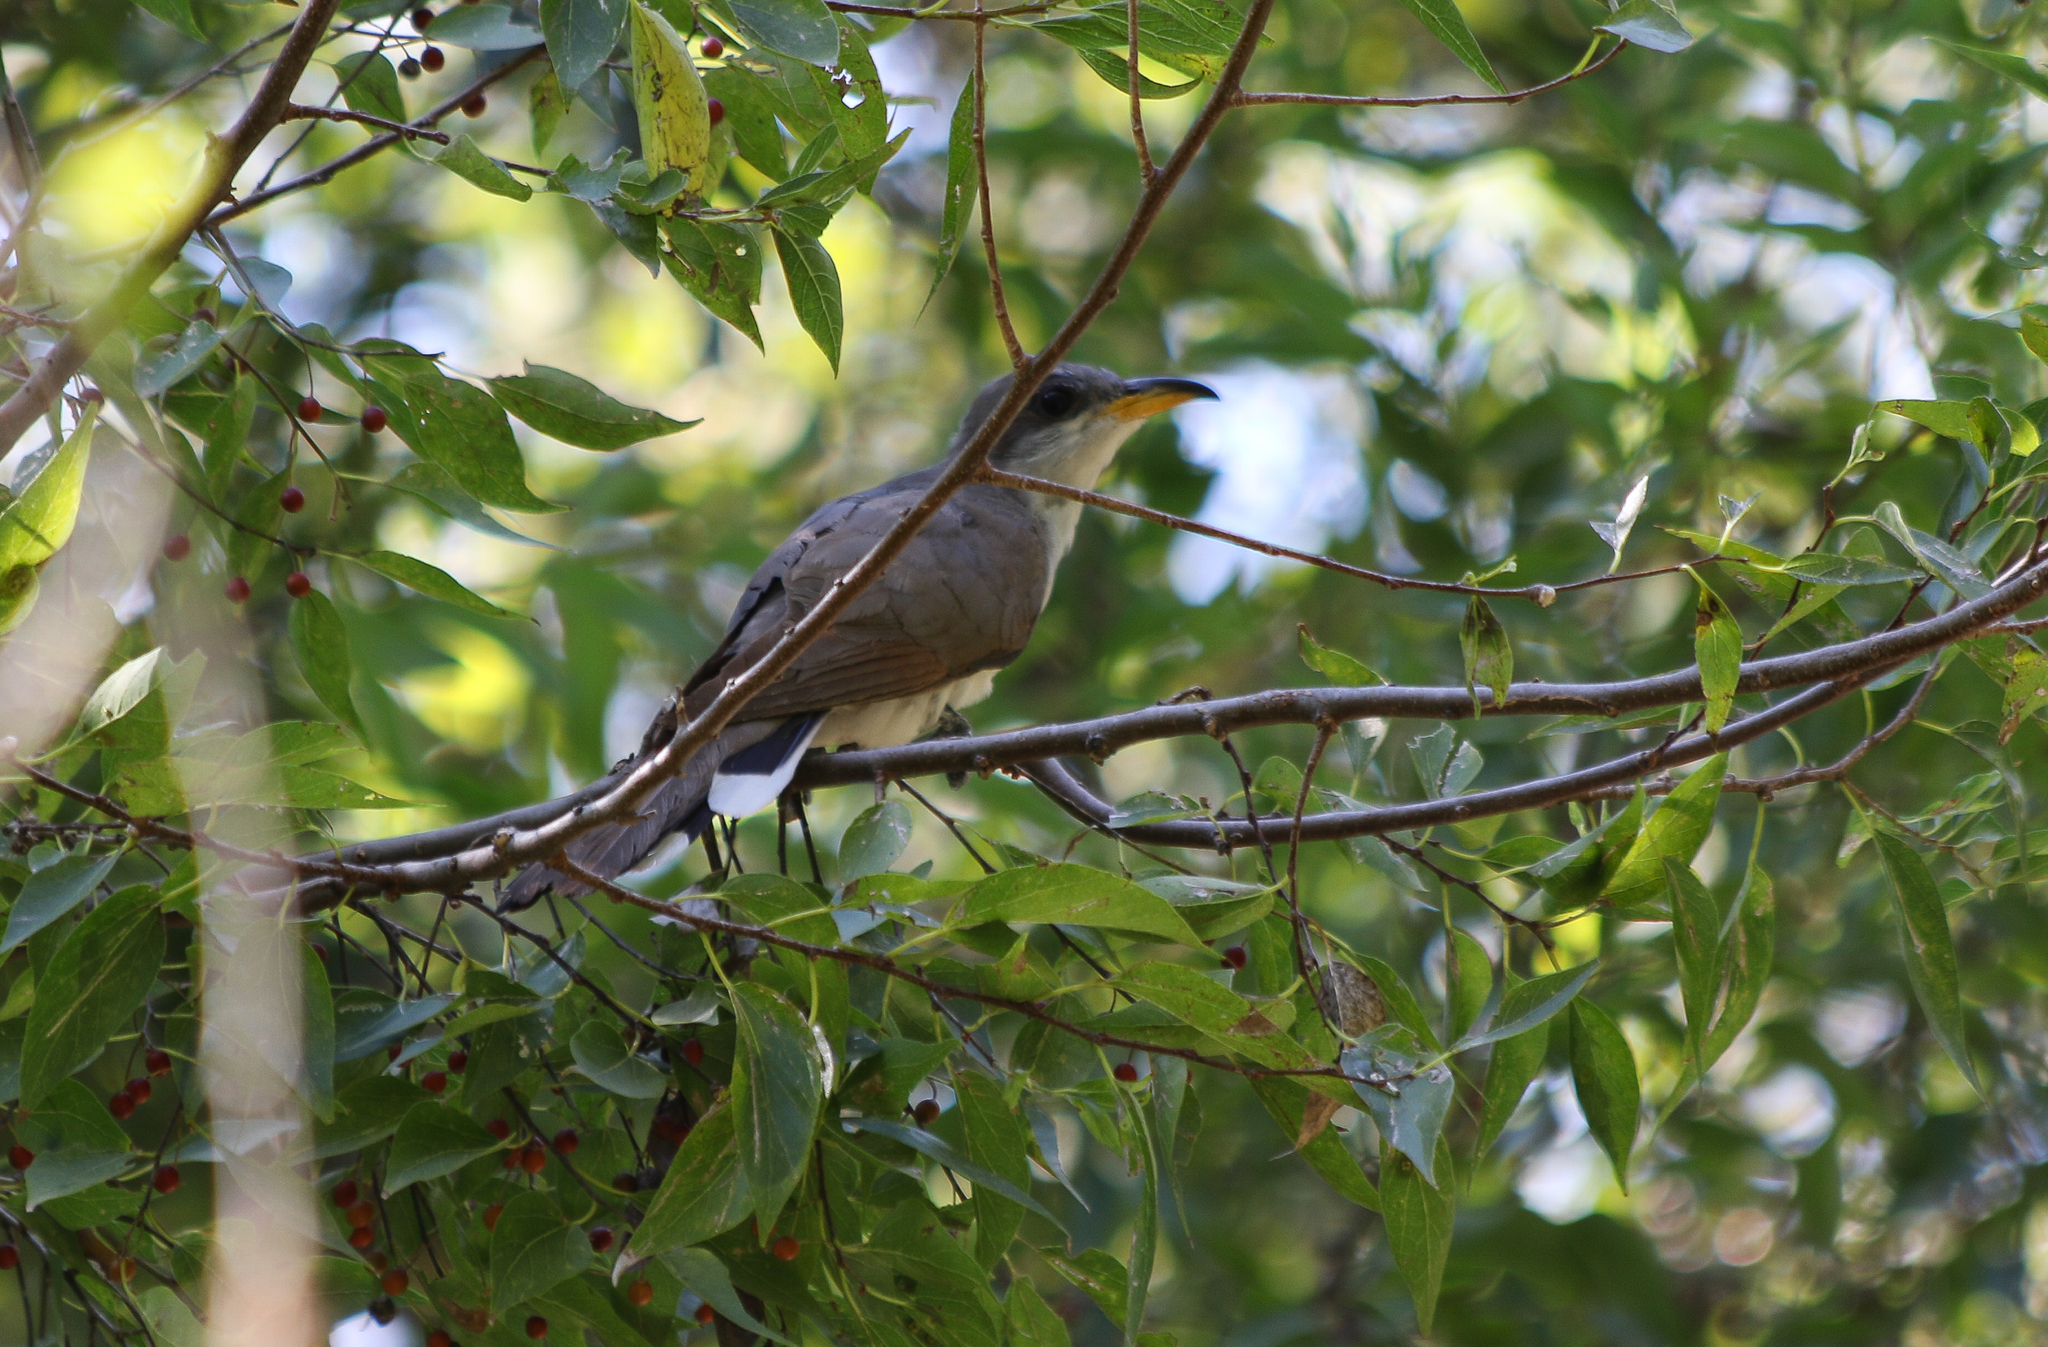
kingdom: Animalia
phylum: Chordata
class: Aves
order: Cuculiformes
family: Cuculidae
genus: Coccyzus
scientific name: Coccyzus americanus
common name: Yellow-billed cuckoo
